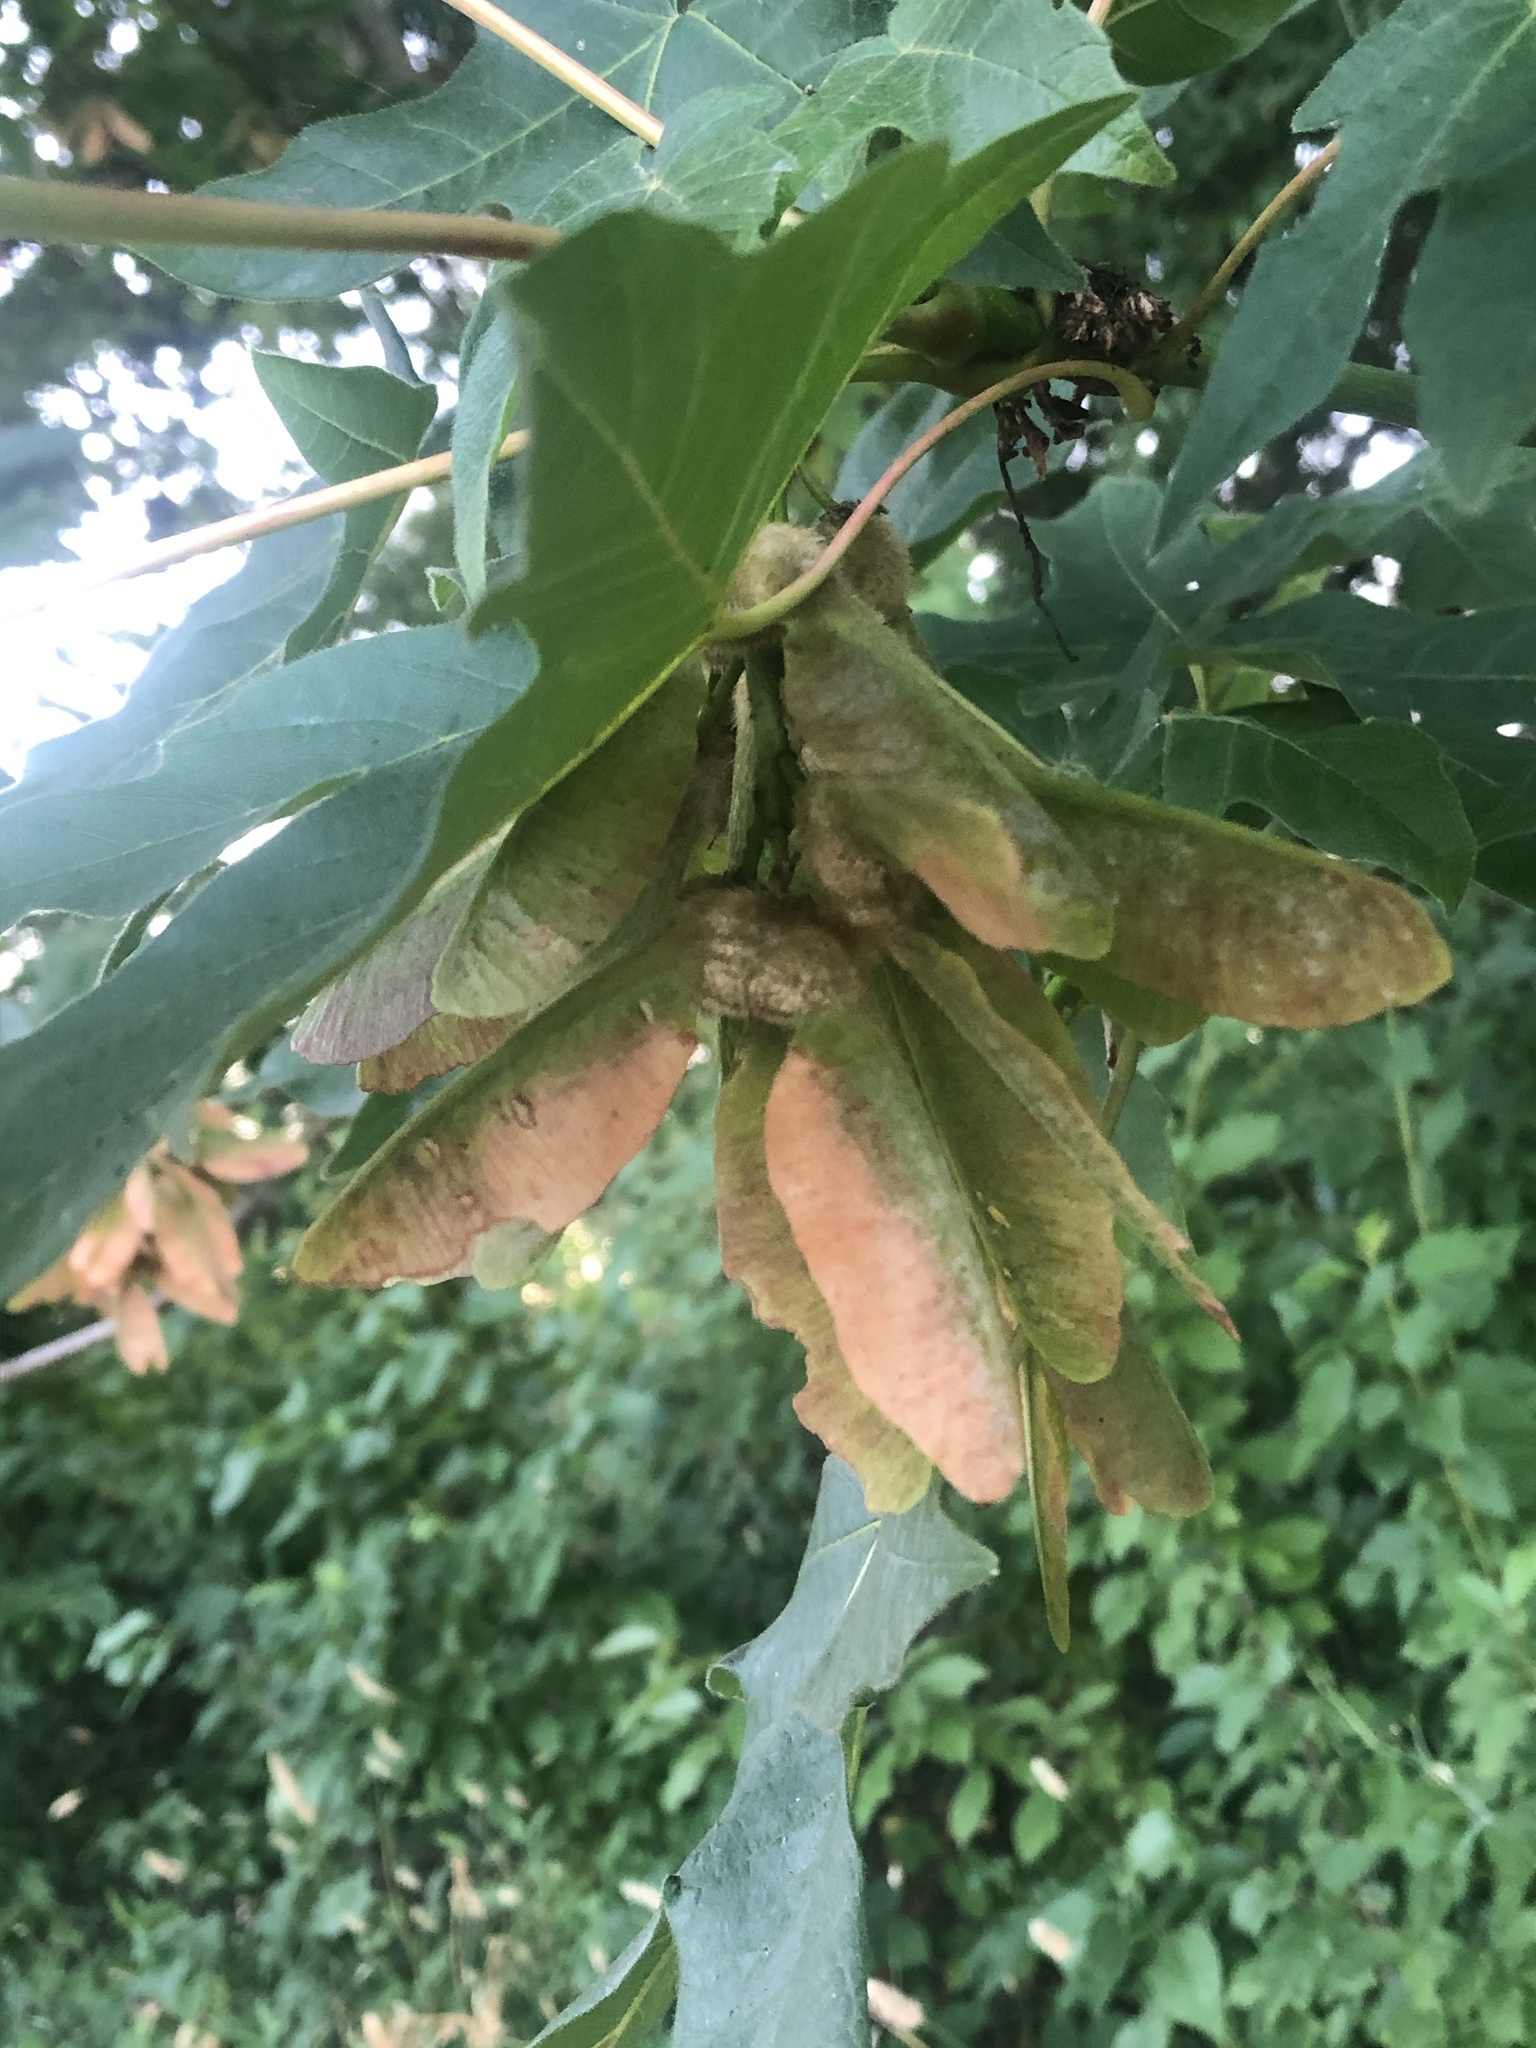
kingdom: Plantae
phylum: Tracheophyta
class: Magnoliopsida
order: Sapindales
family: Sapindaceae
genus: Acer
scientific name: Acer macrophyllum
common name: Oregon maple
